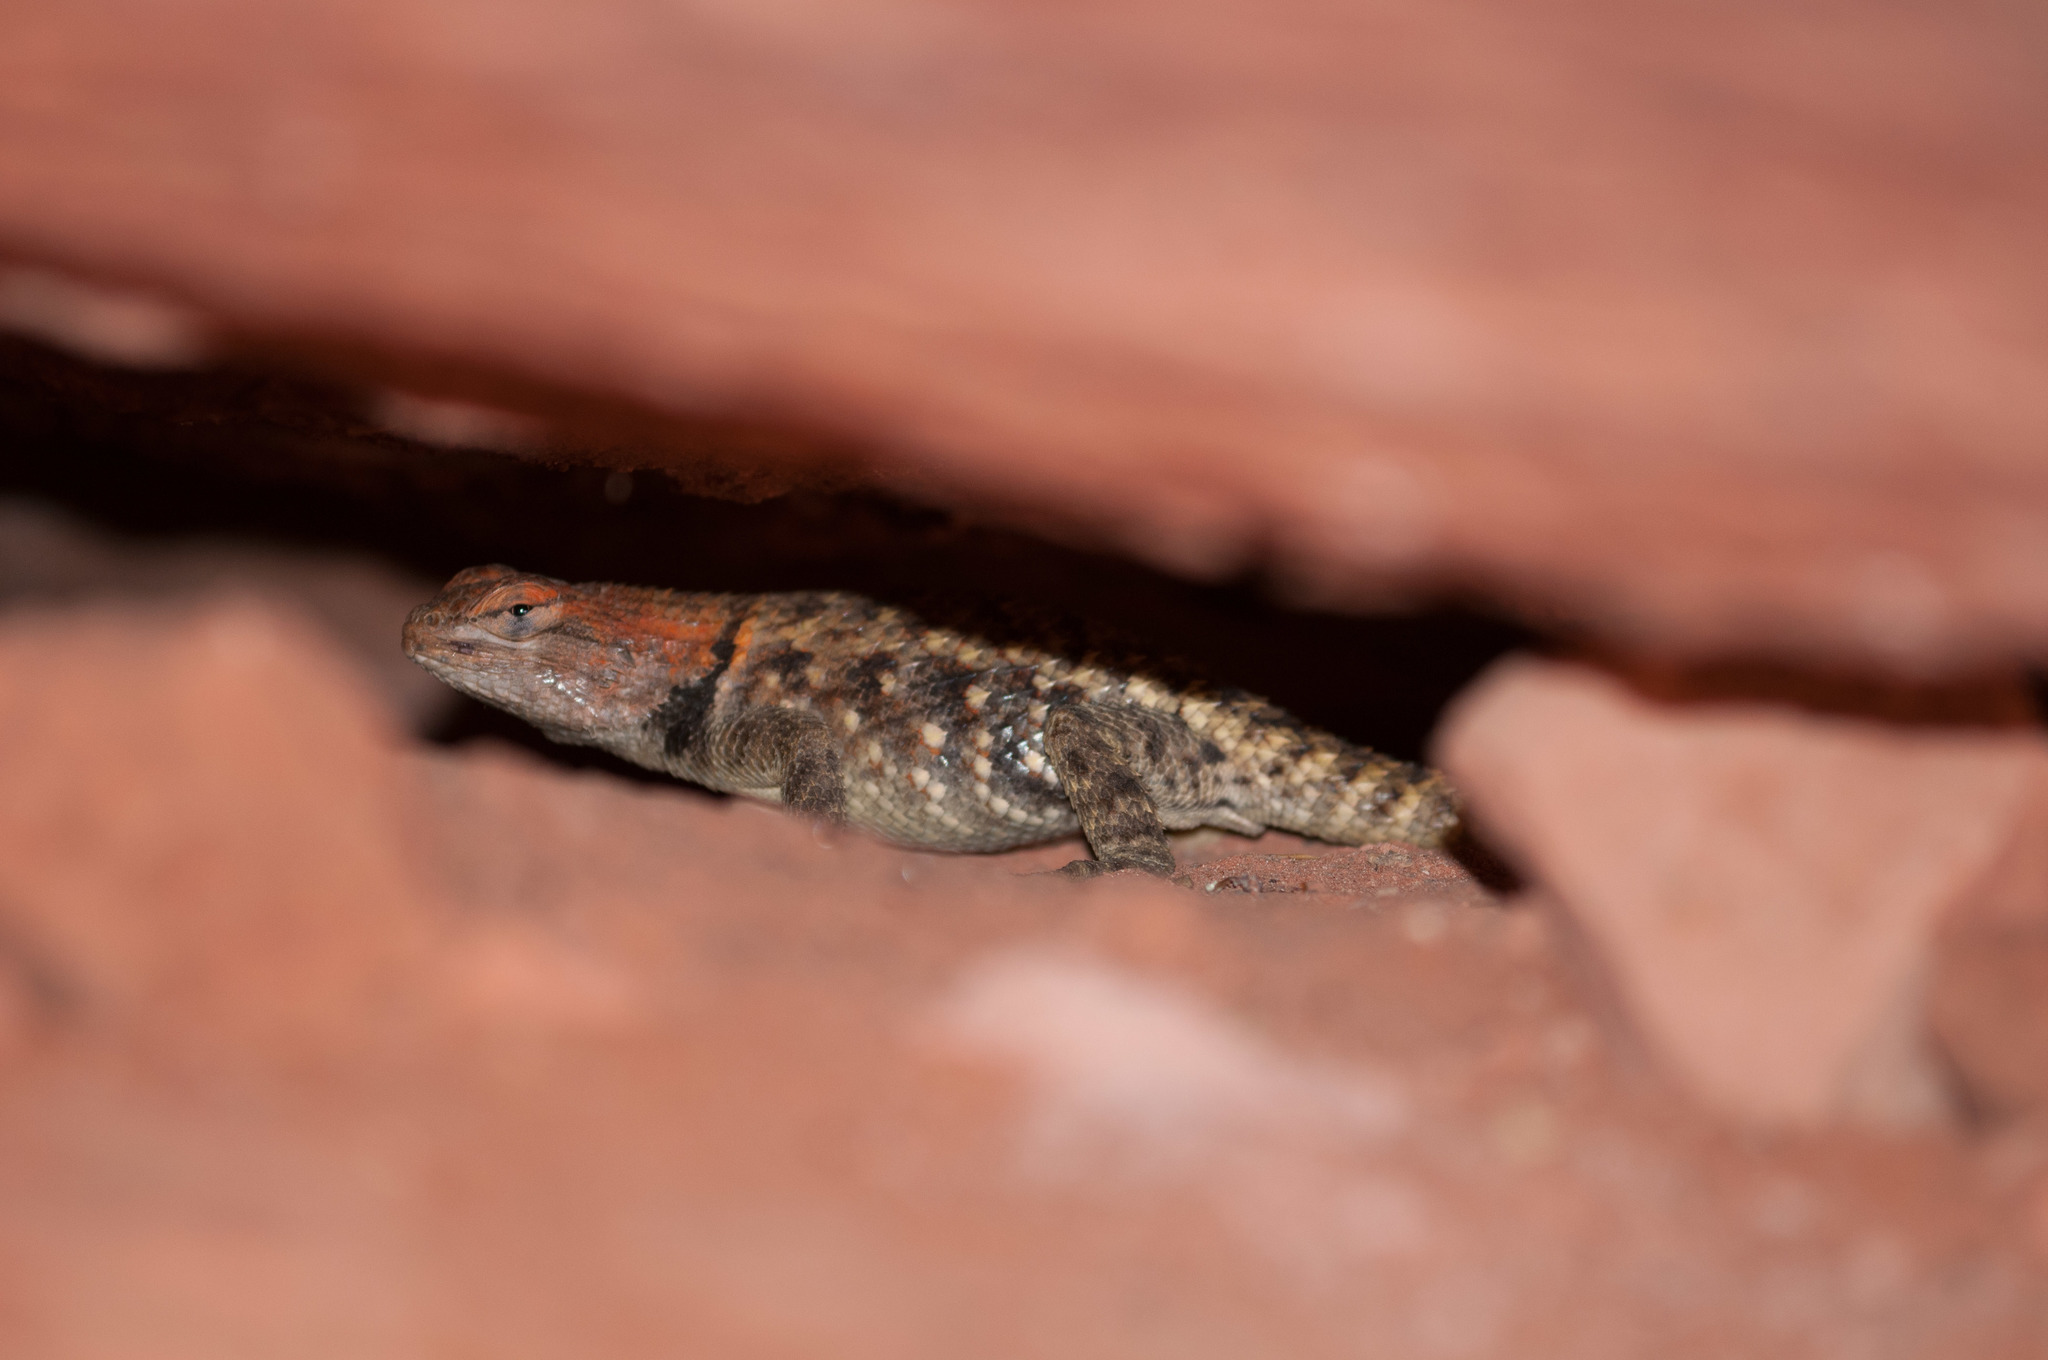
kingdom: Animalia
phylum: Chordata
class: Squamata
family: Phrynosomatidae
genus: Sceloporus
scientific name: Sceloporus uniformis
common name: Yellow-backed spiny lizard
